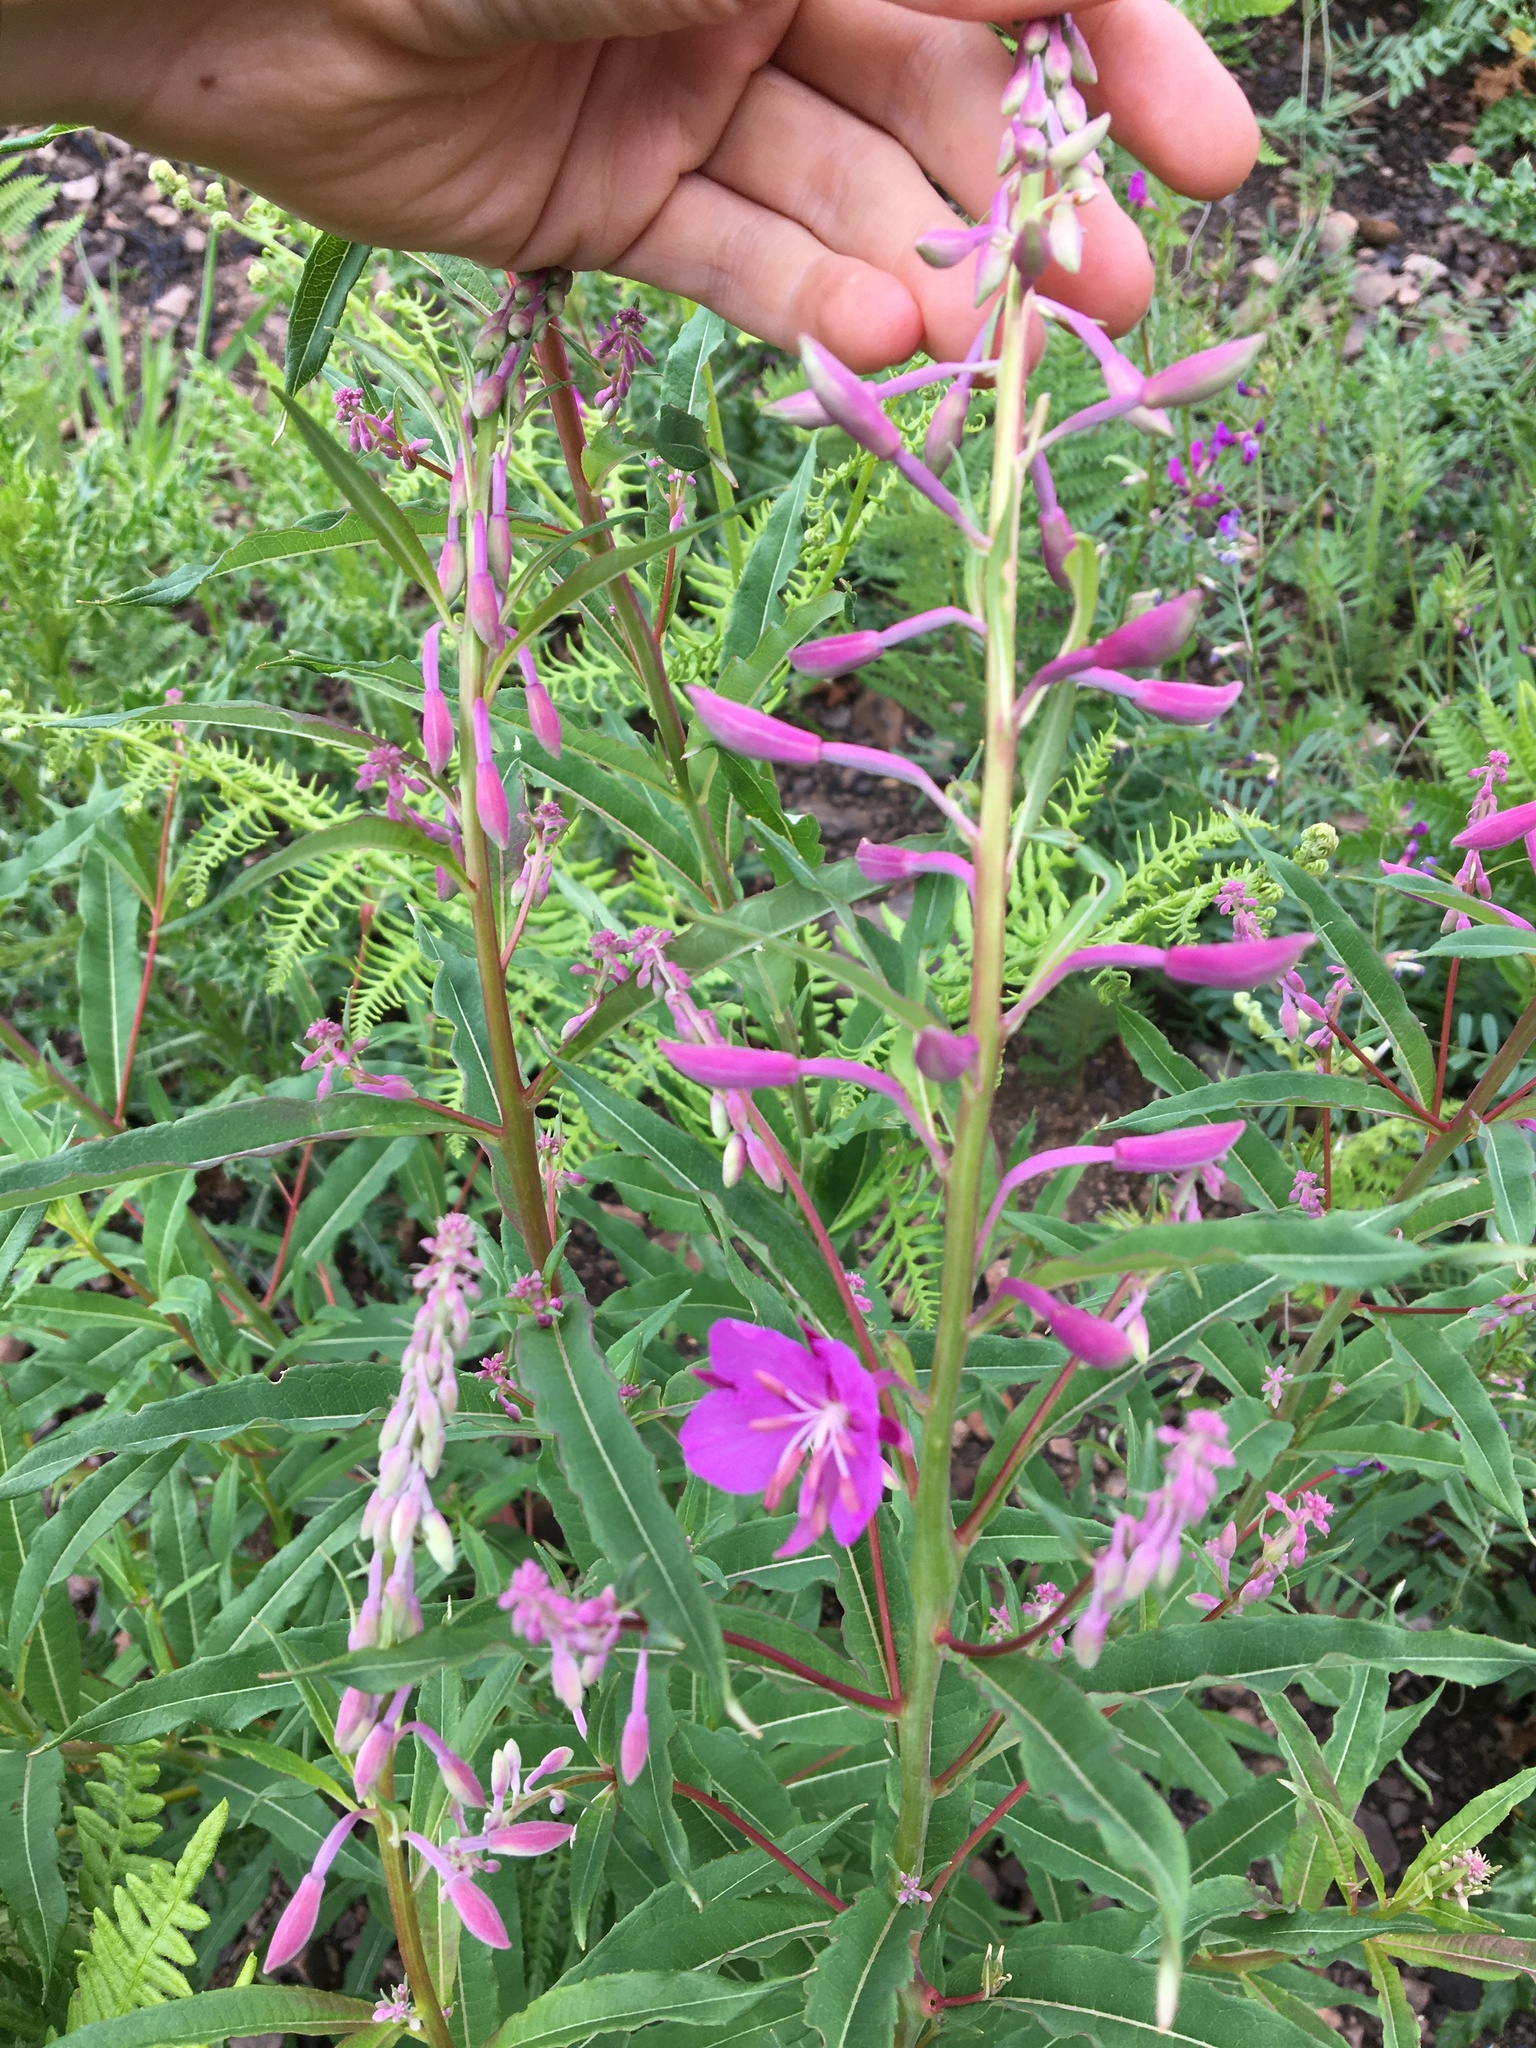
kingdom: Plantae
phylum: Tracheophyta
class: Magnoliopsida
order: Myrtales
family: Onagraceae
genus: Chamaenerion
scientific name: Chamaenerion angustifolium
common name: Fireweed
